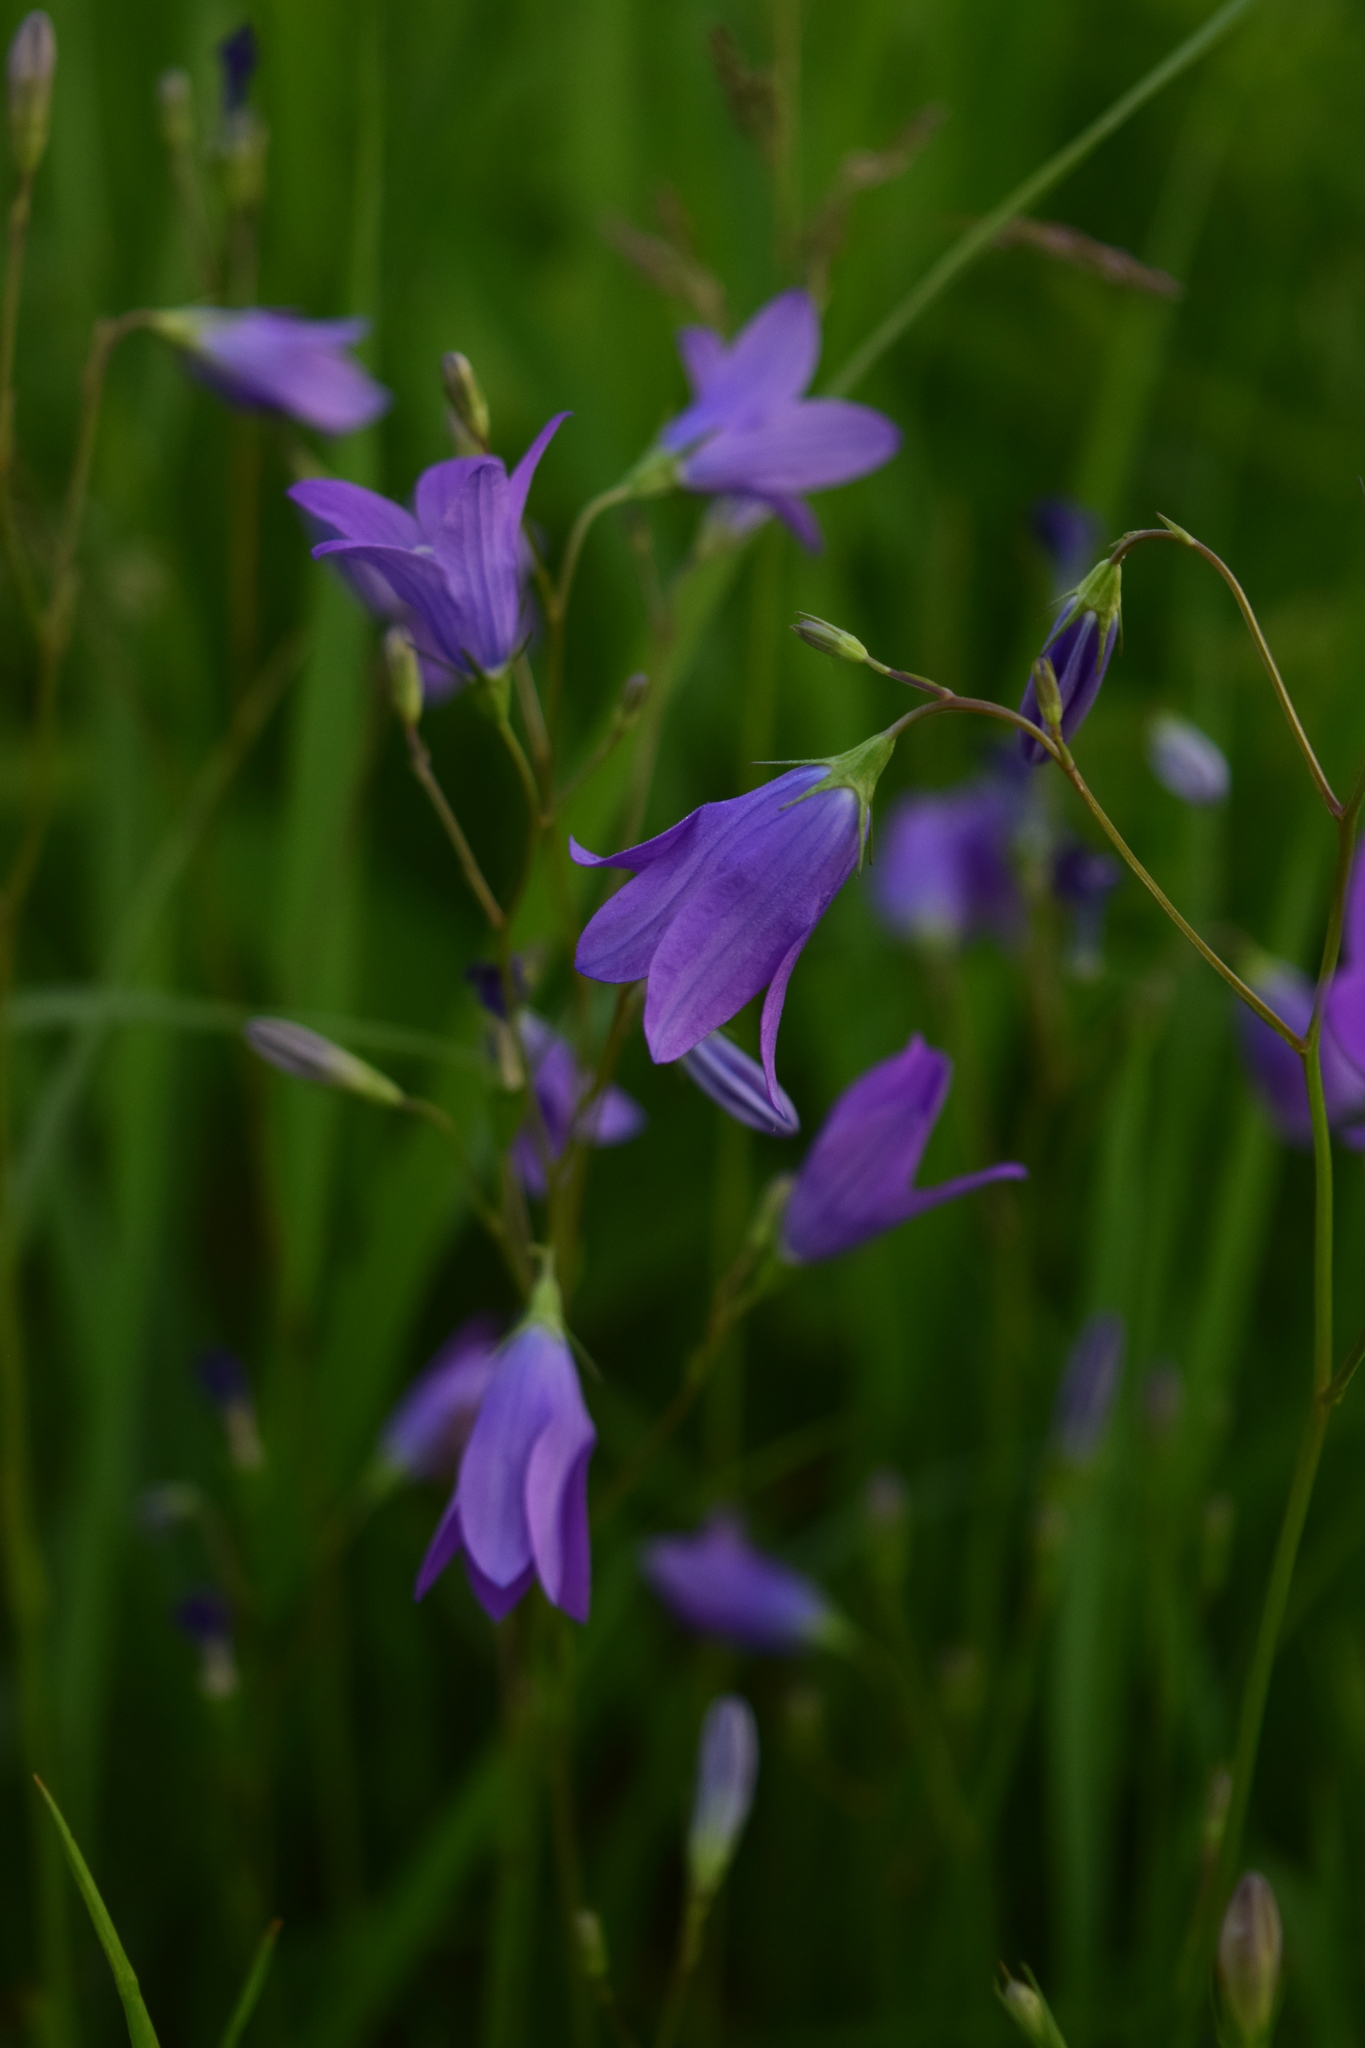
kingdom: Plantae
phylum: Tracheophyta
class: Magnoliopsida
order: Asterales
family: Campanulaceae
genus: Campanula
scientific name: Campanula patula
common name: Spreading bellflower
